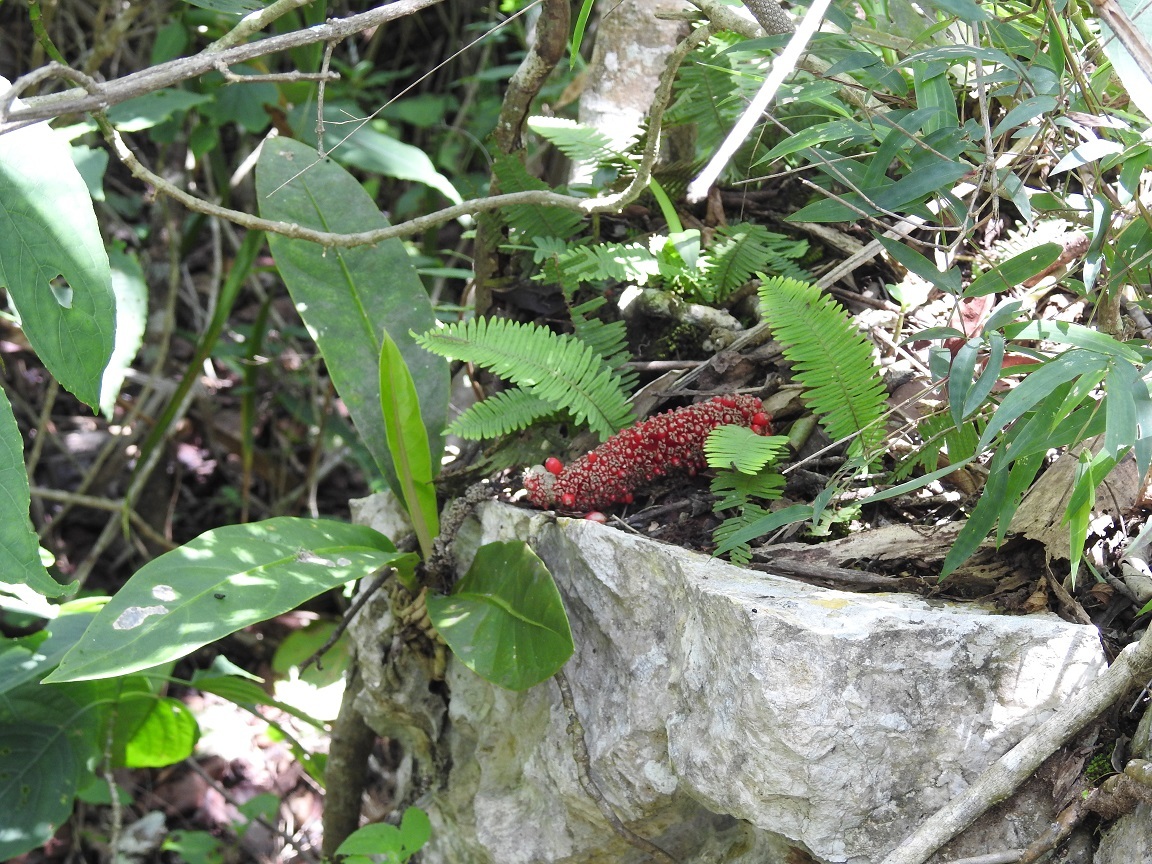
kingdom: Plantae
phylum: Tracheophyta
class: Liliopsida
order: Alismatales
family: Araceae
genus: Anthurium
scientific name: Anthurium schlechtendalii
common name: Laceleaf
